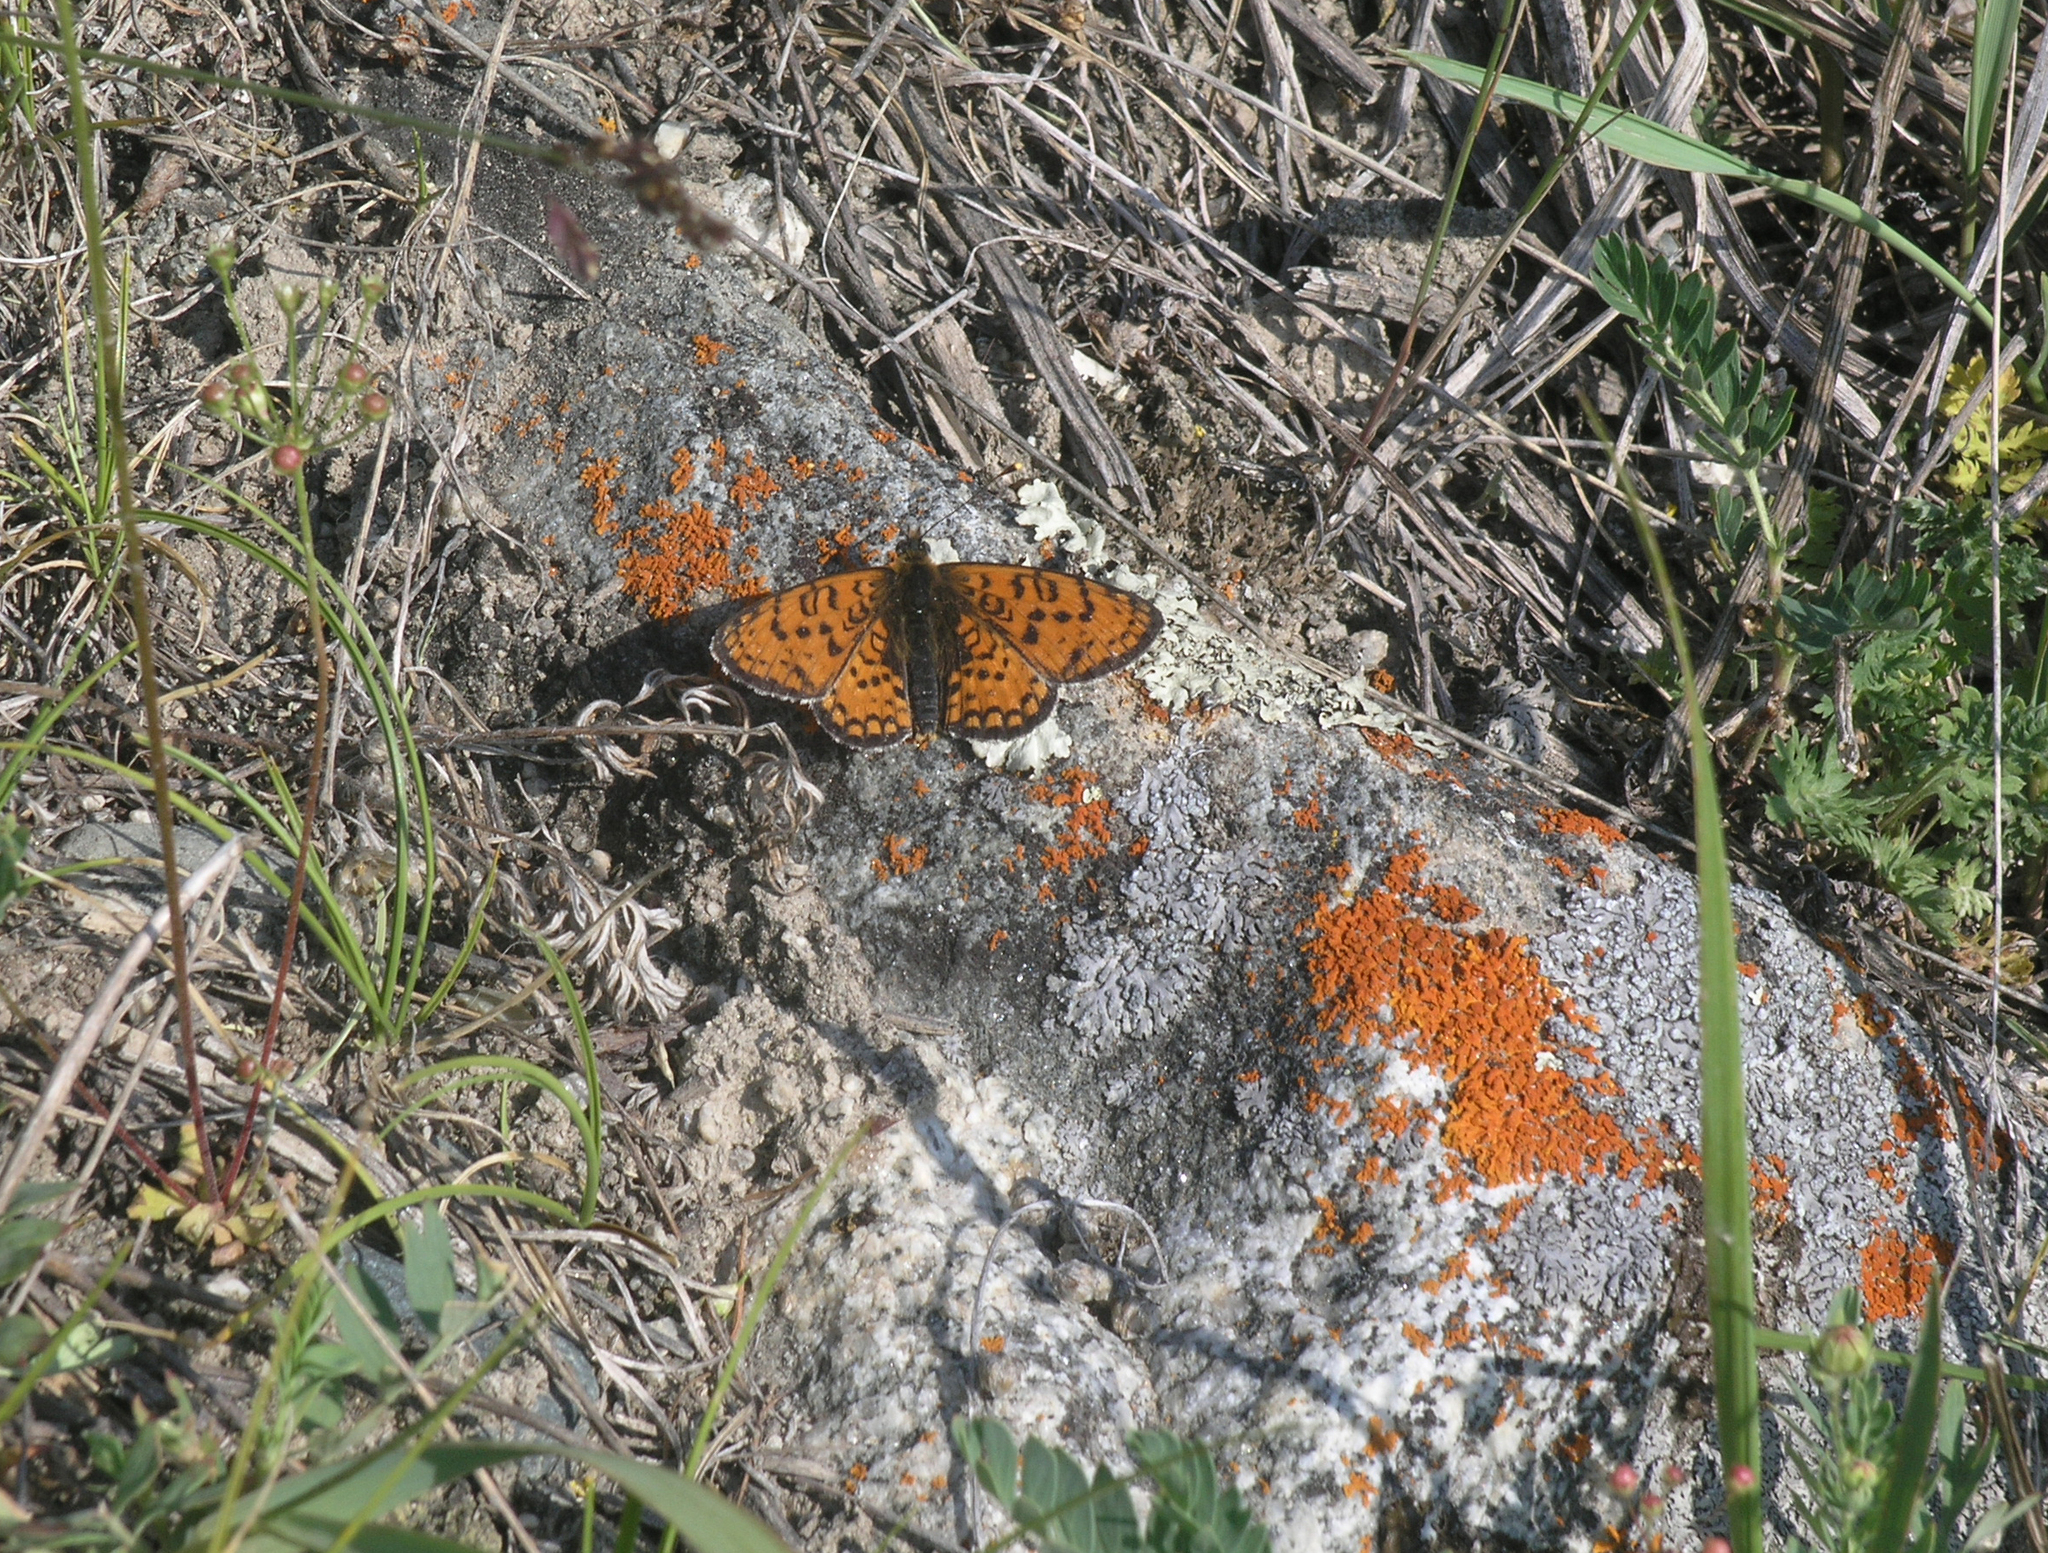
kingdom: Animalia
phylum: Arthropoda
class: Insecta
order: Lepidoptera
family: Nymphalidae
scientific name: Nymphalidae
